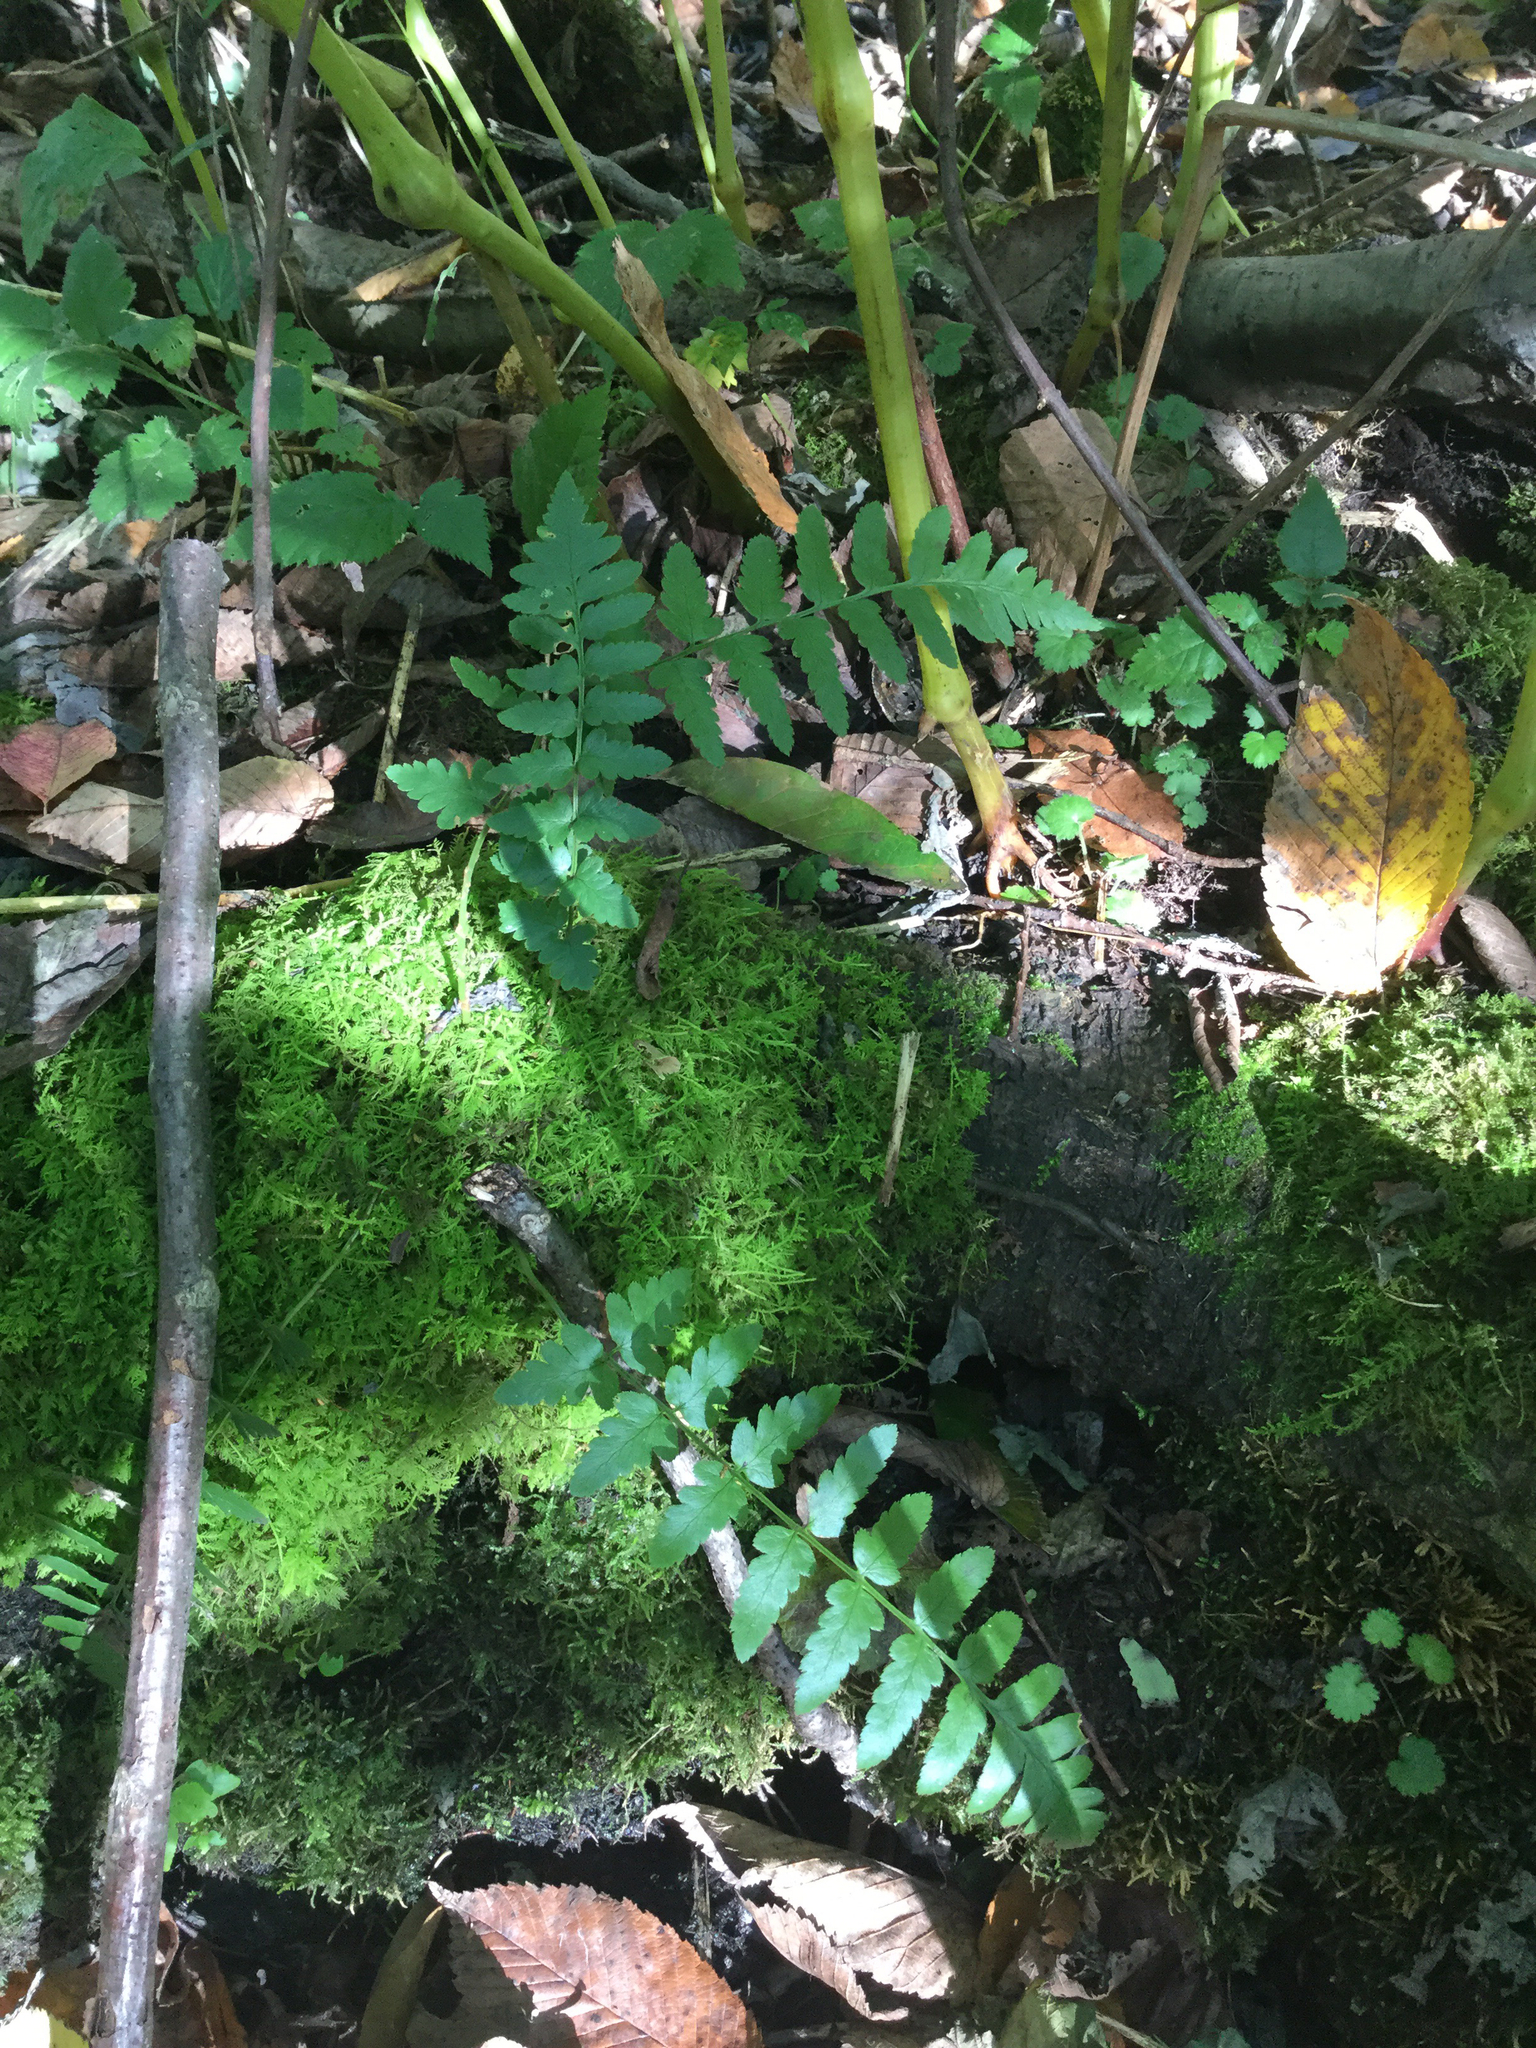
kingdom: Plantae
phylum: Tracheophyta
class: Polypodiopsida
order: Polypodiales
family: Dryopteridaceae
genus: Dryopteris
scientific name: Dryopteris cristata
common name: Crested wood fern
